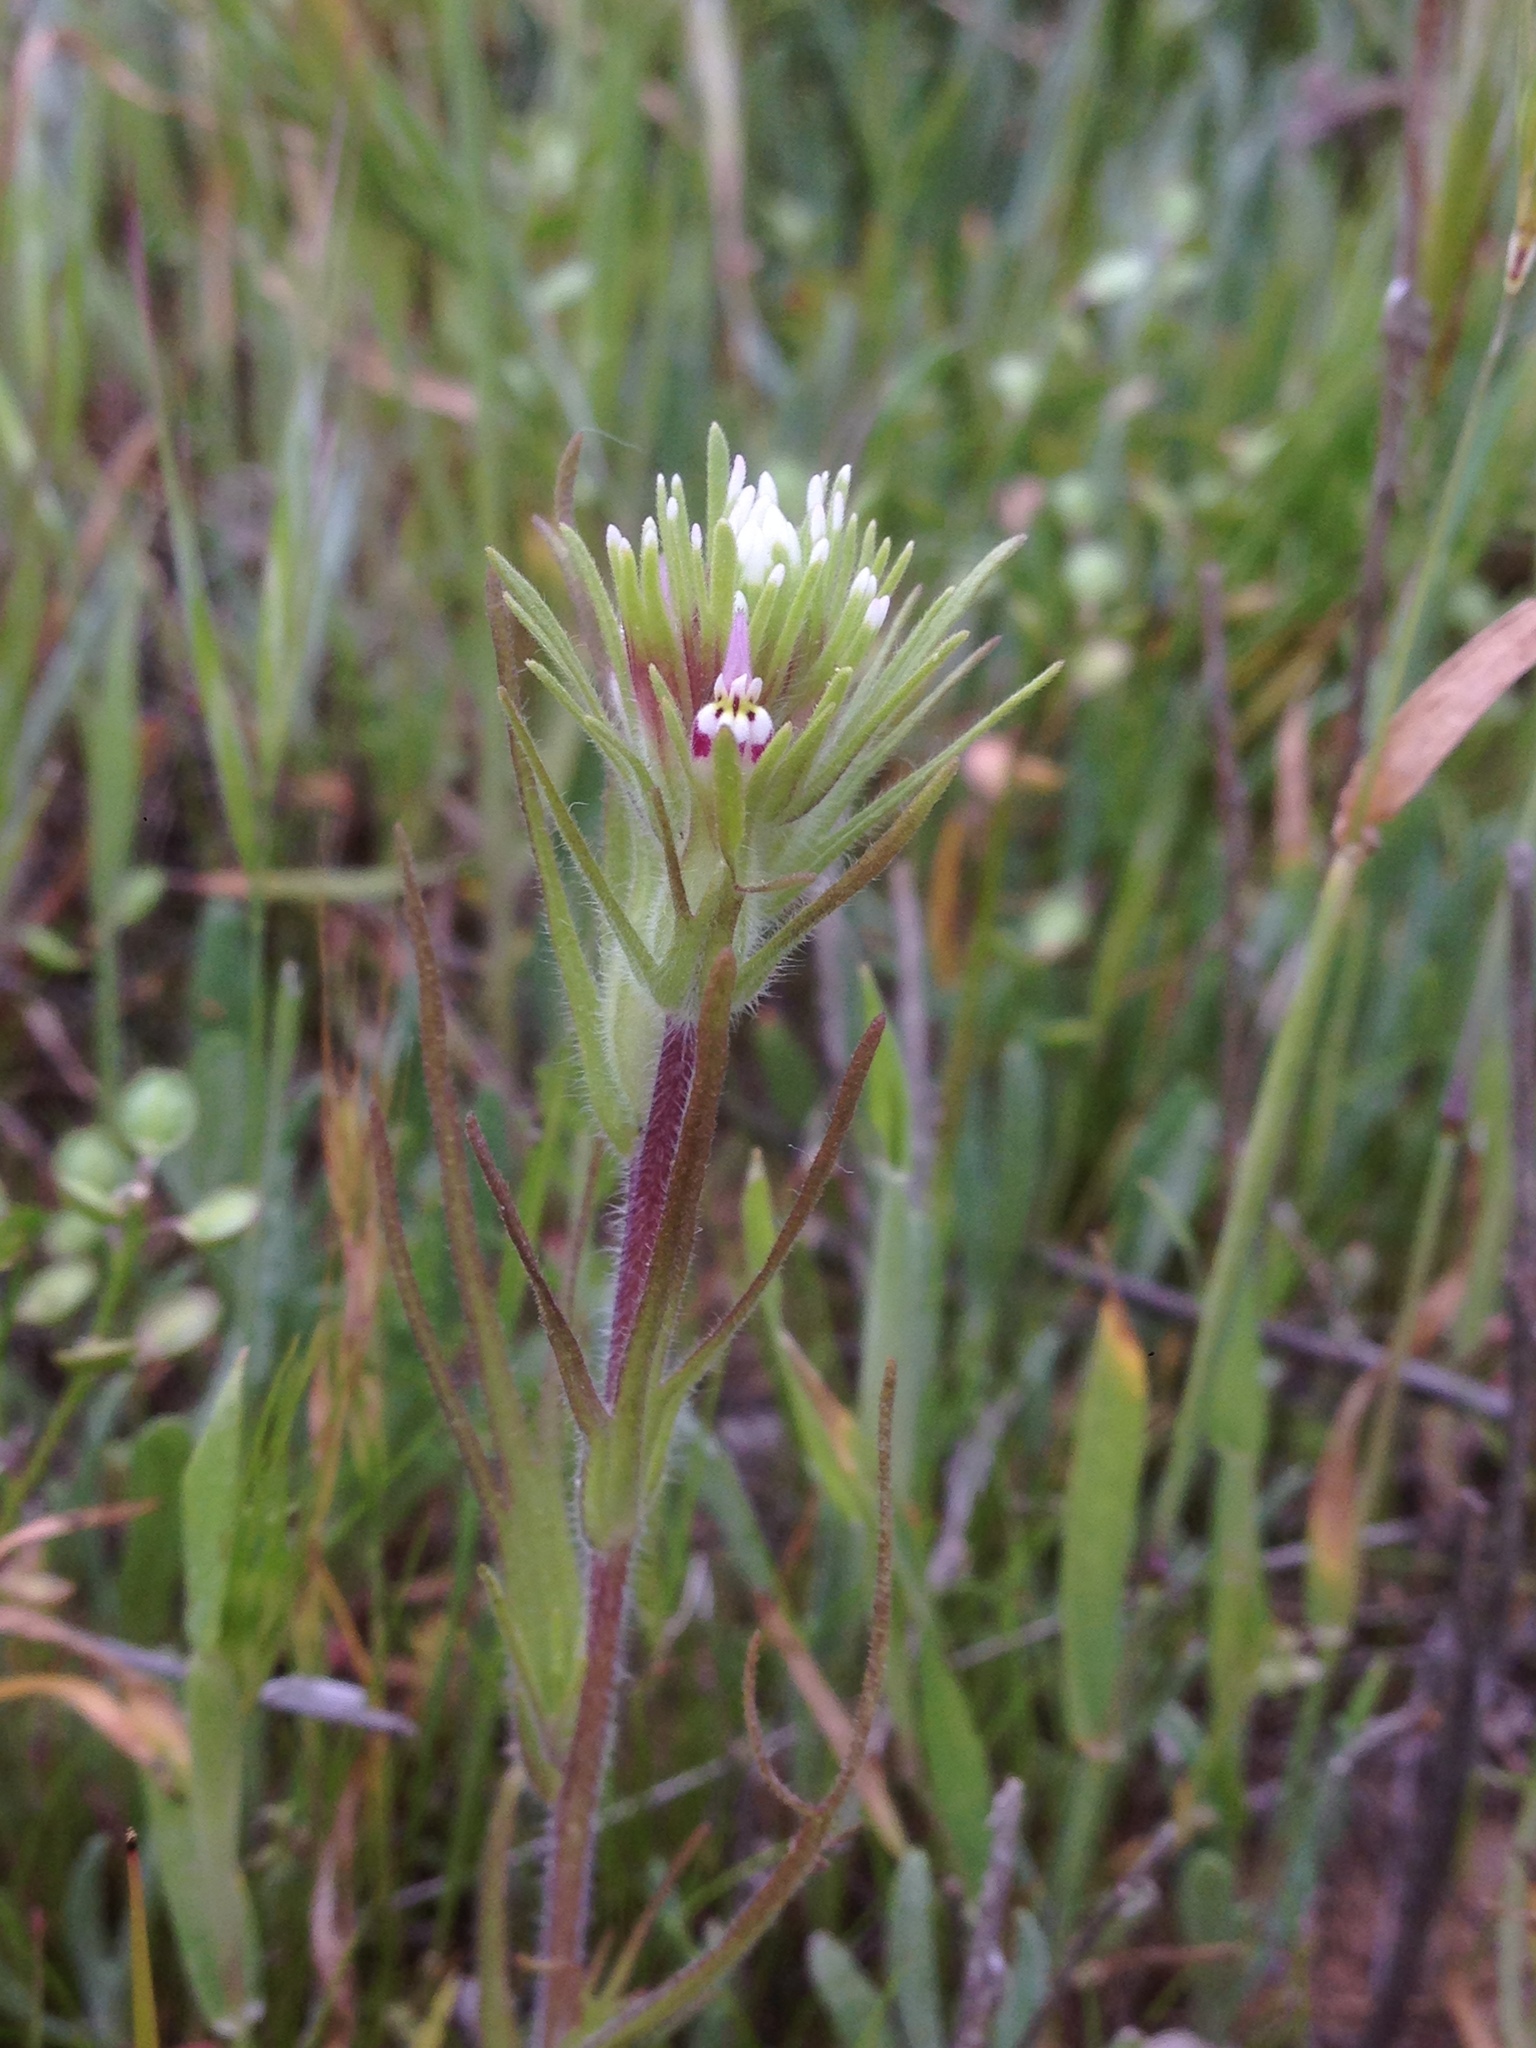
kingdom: Plantae
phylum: Tracheophyta
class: Magnoliopsida
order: Lamiales
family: Orobanchaceae
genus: Castilleja
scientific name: Castilleja attenuata
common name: Valley tassels
